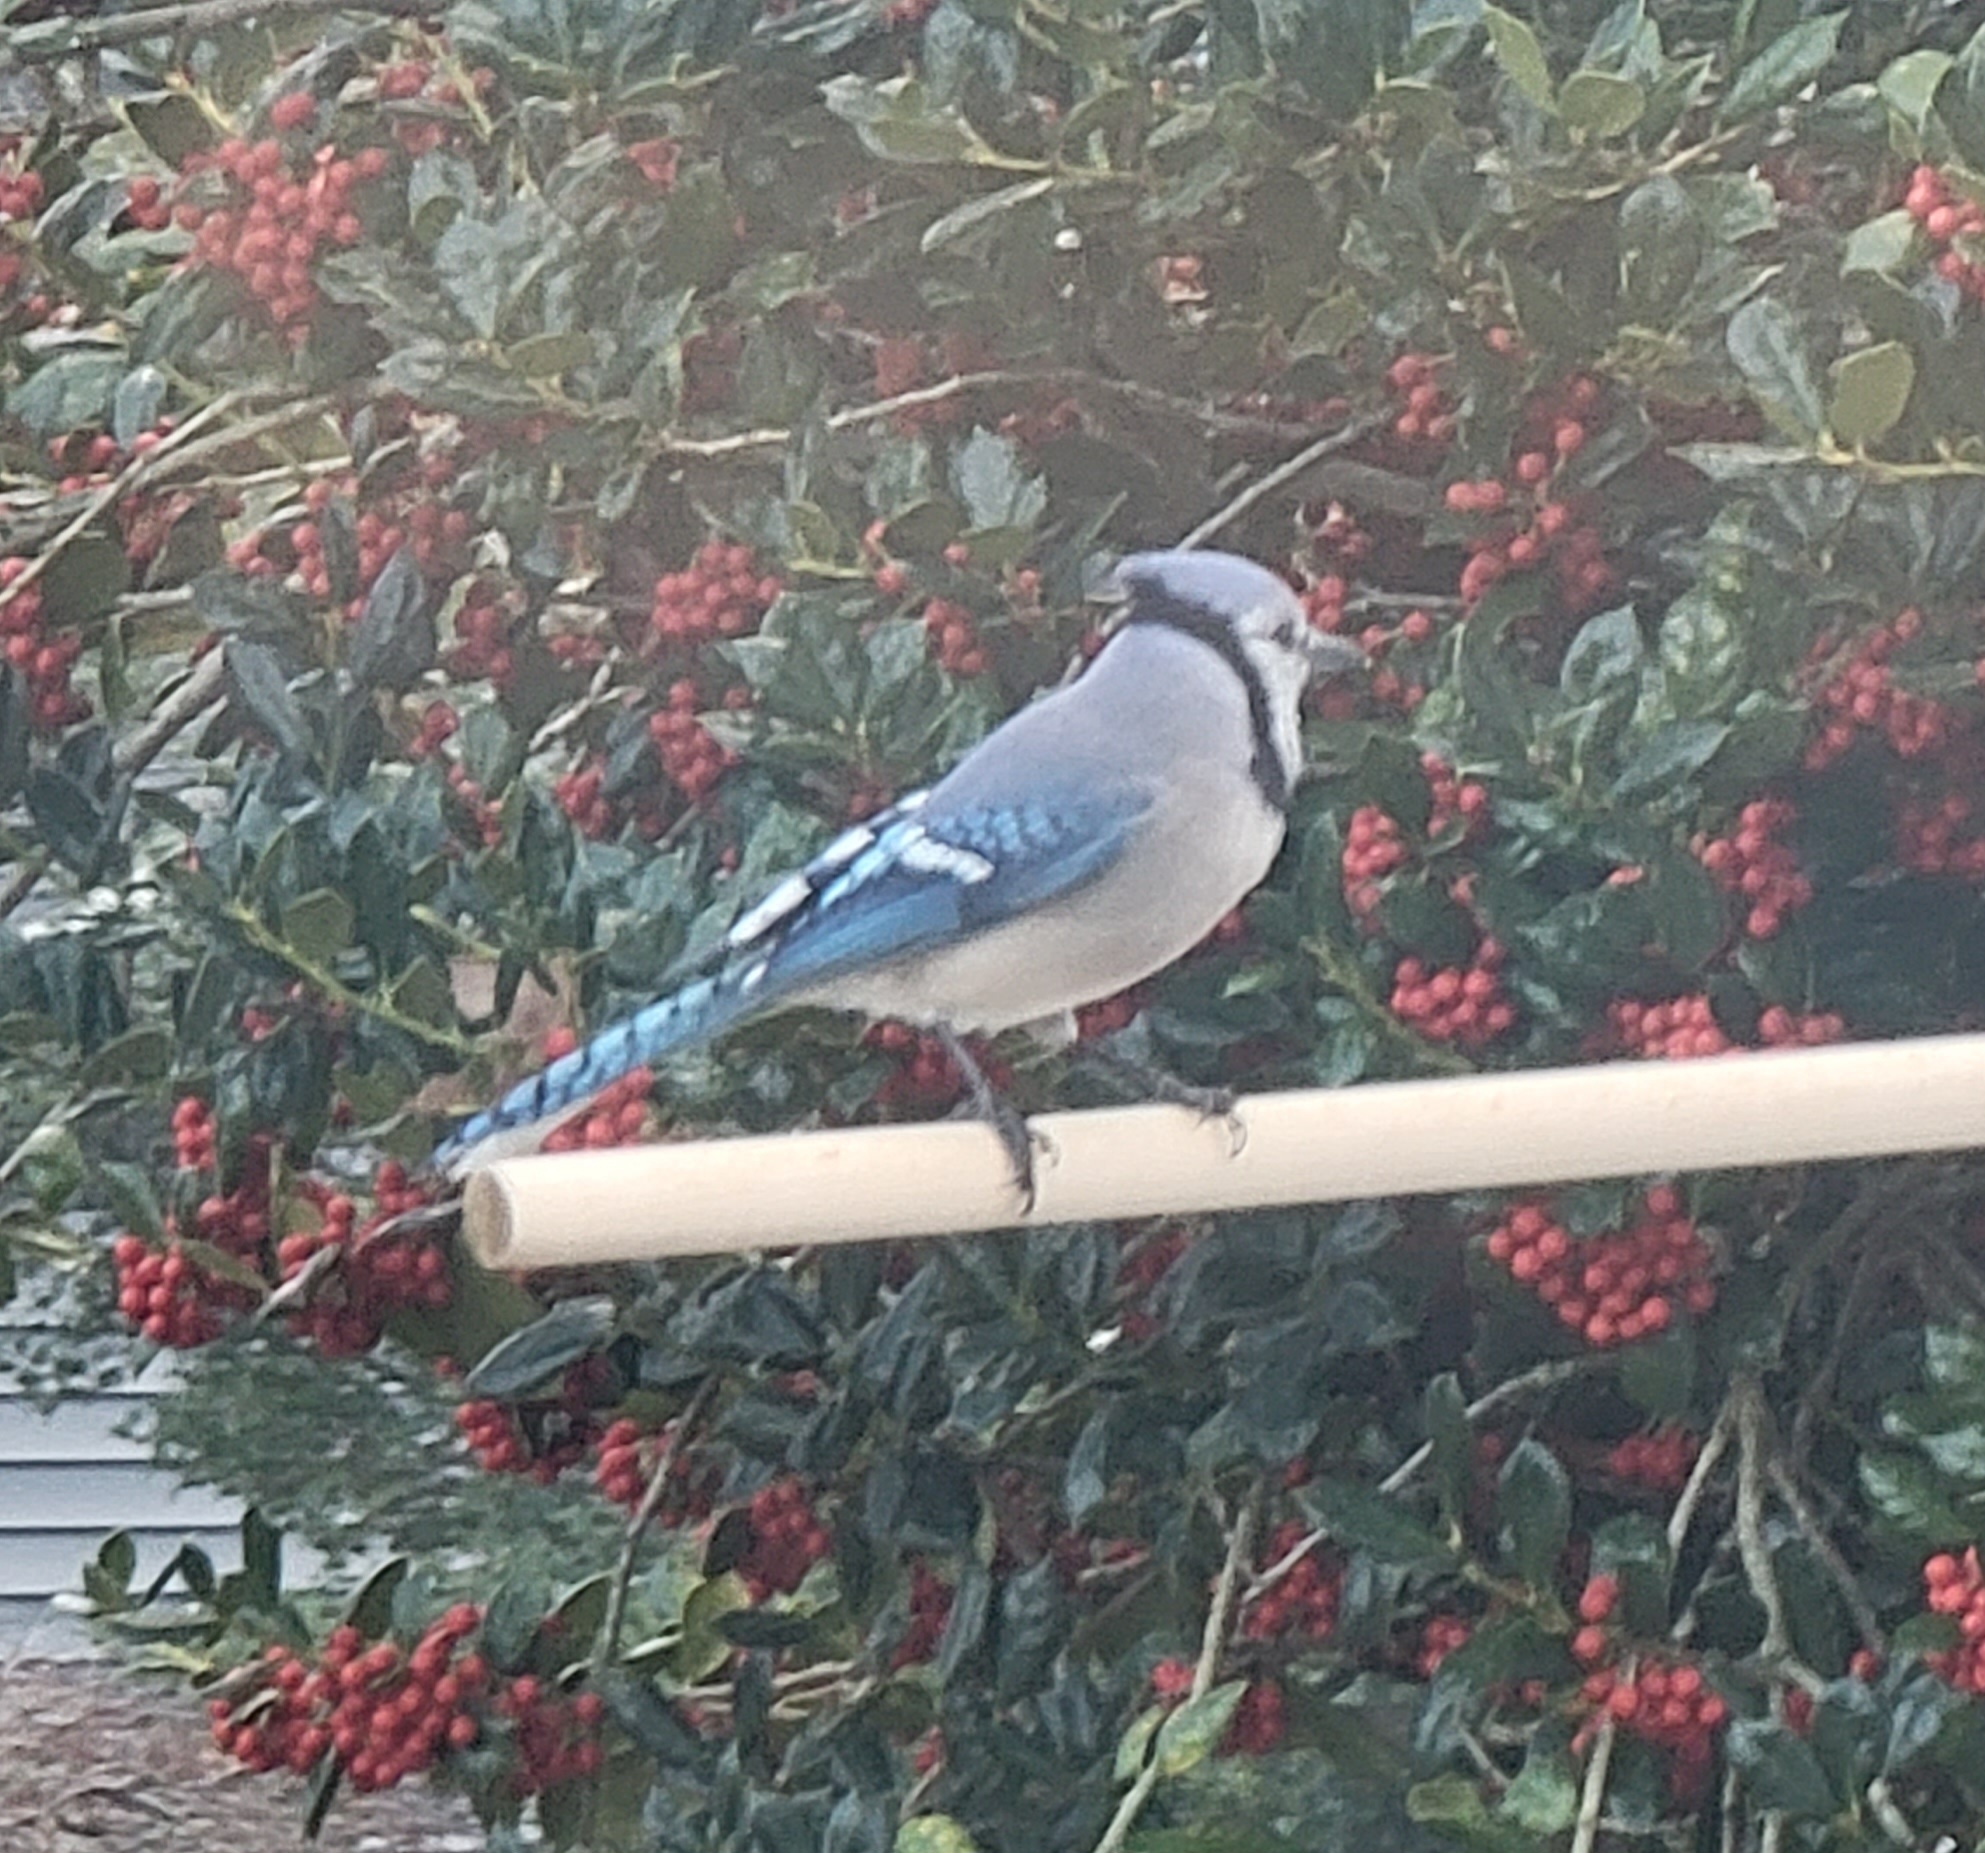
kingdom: Animalia
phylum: Chordata
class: Aves
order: Passeriformes
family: Corvidae
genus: Cyanocitta
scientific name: Cyanocitta cristata
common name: Blue jay
